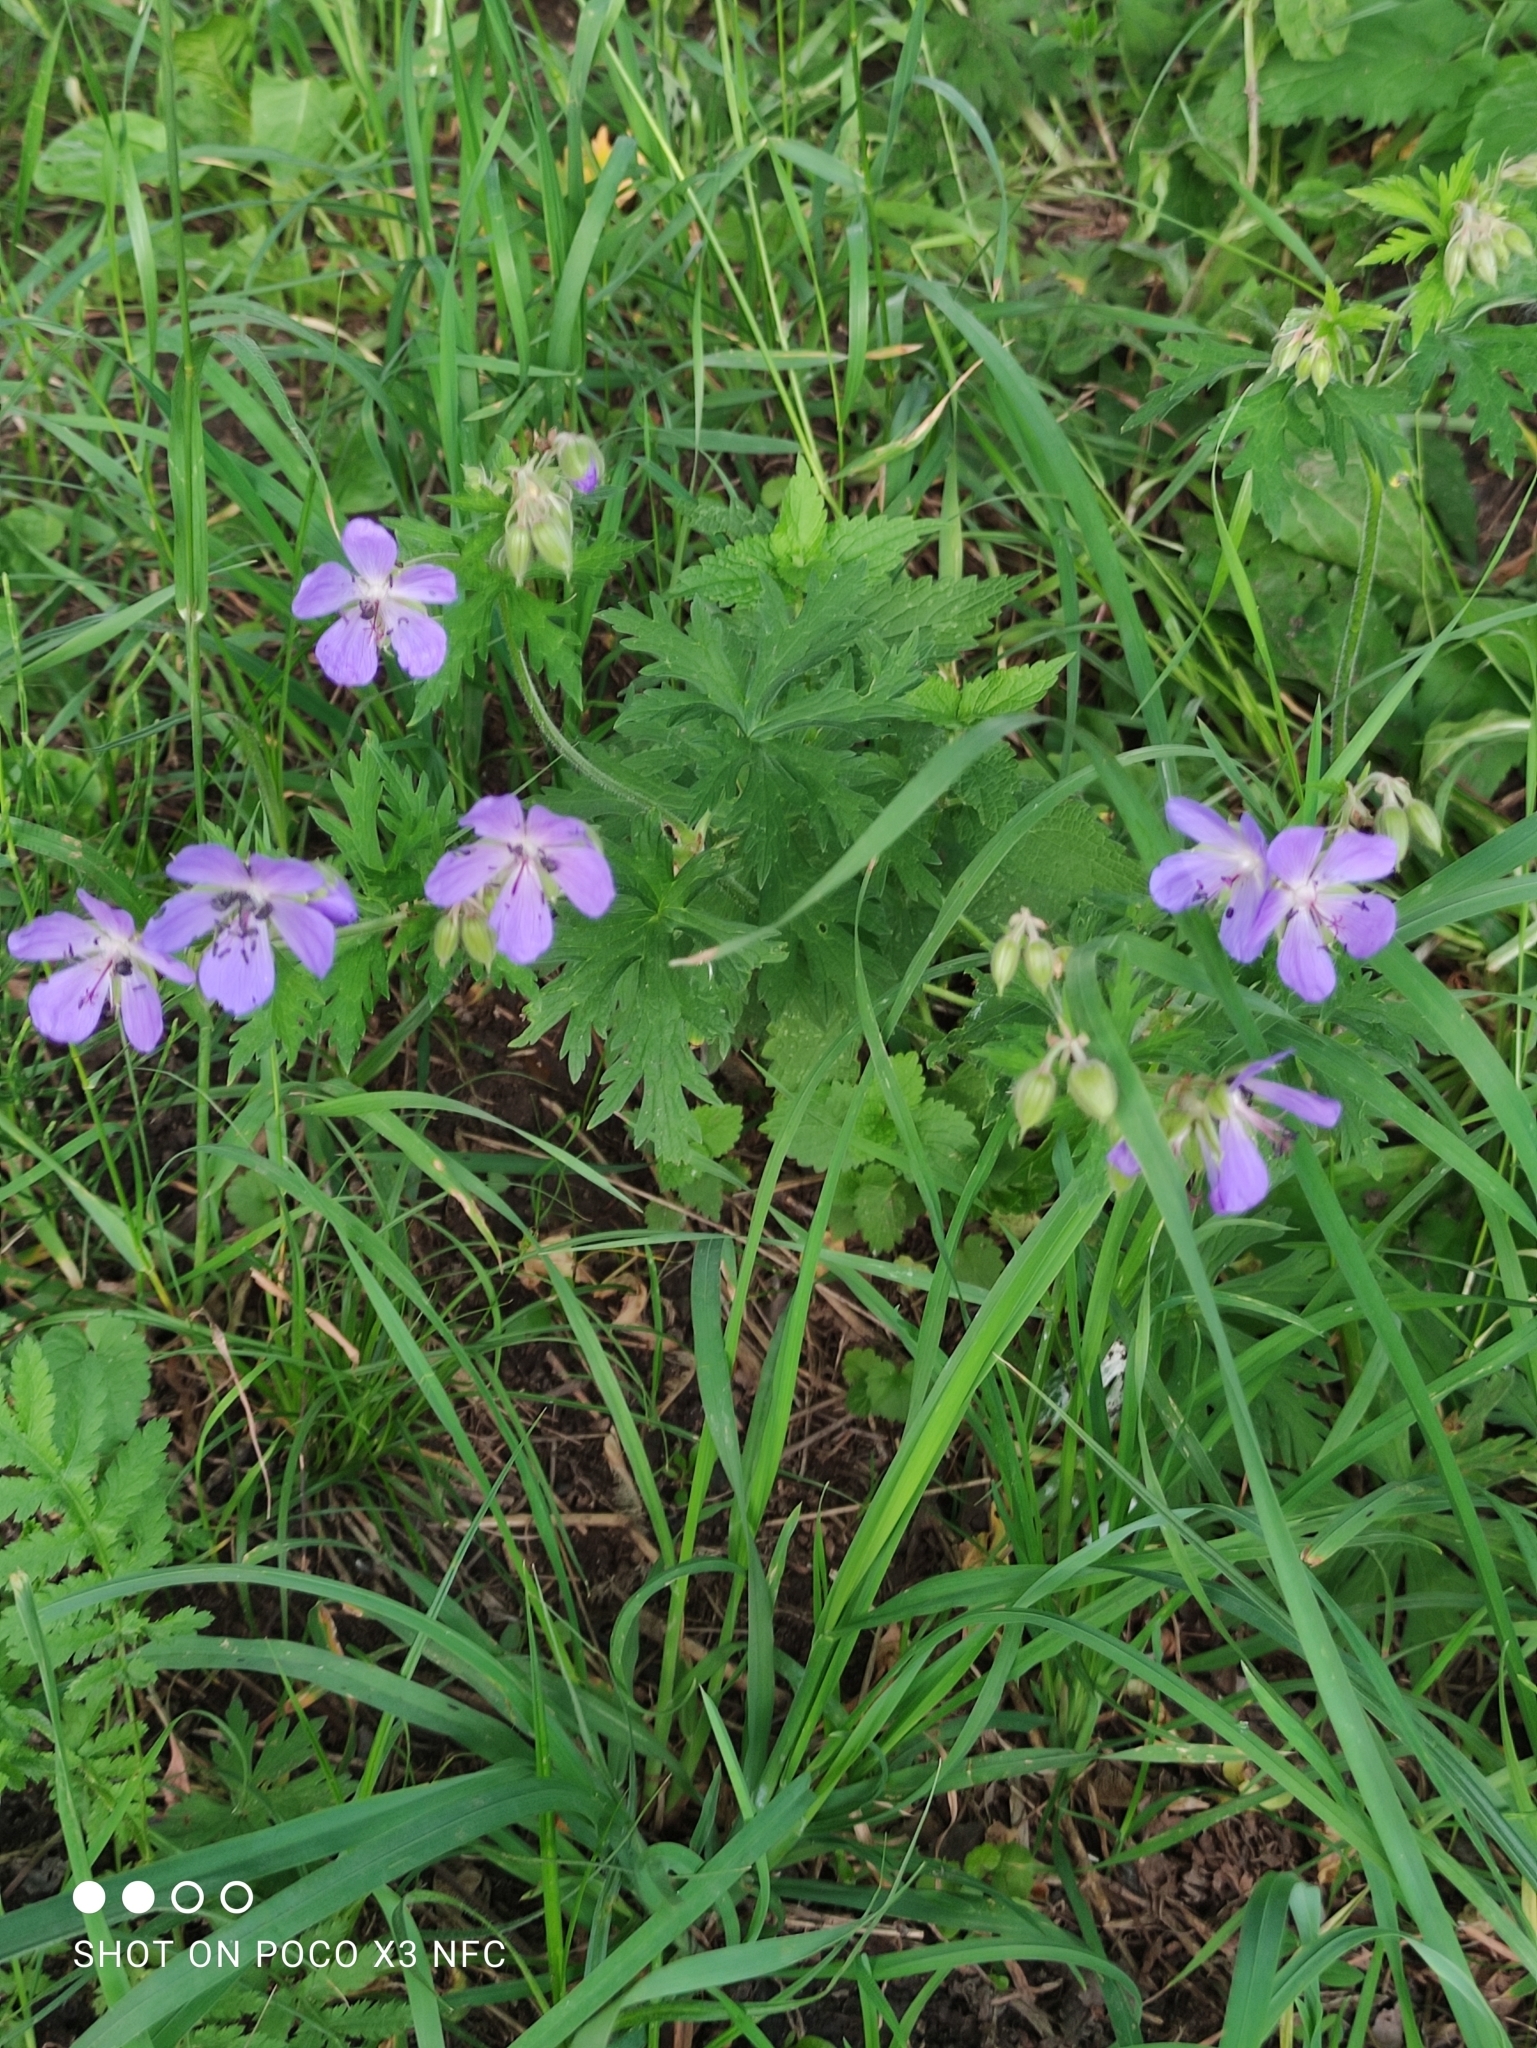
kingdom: Plantae
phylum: Tracheophyta
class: Magnoliopsida
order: Geraniales
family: Geraniaceae
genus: Geranium
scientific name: Geranium pratense
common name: Meadow crane's-bill
